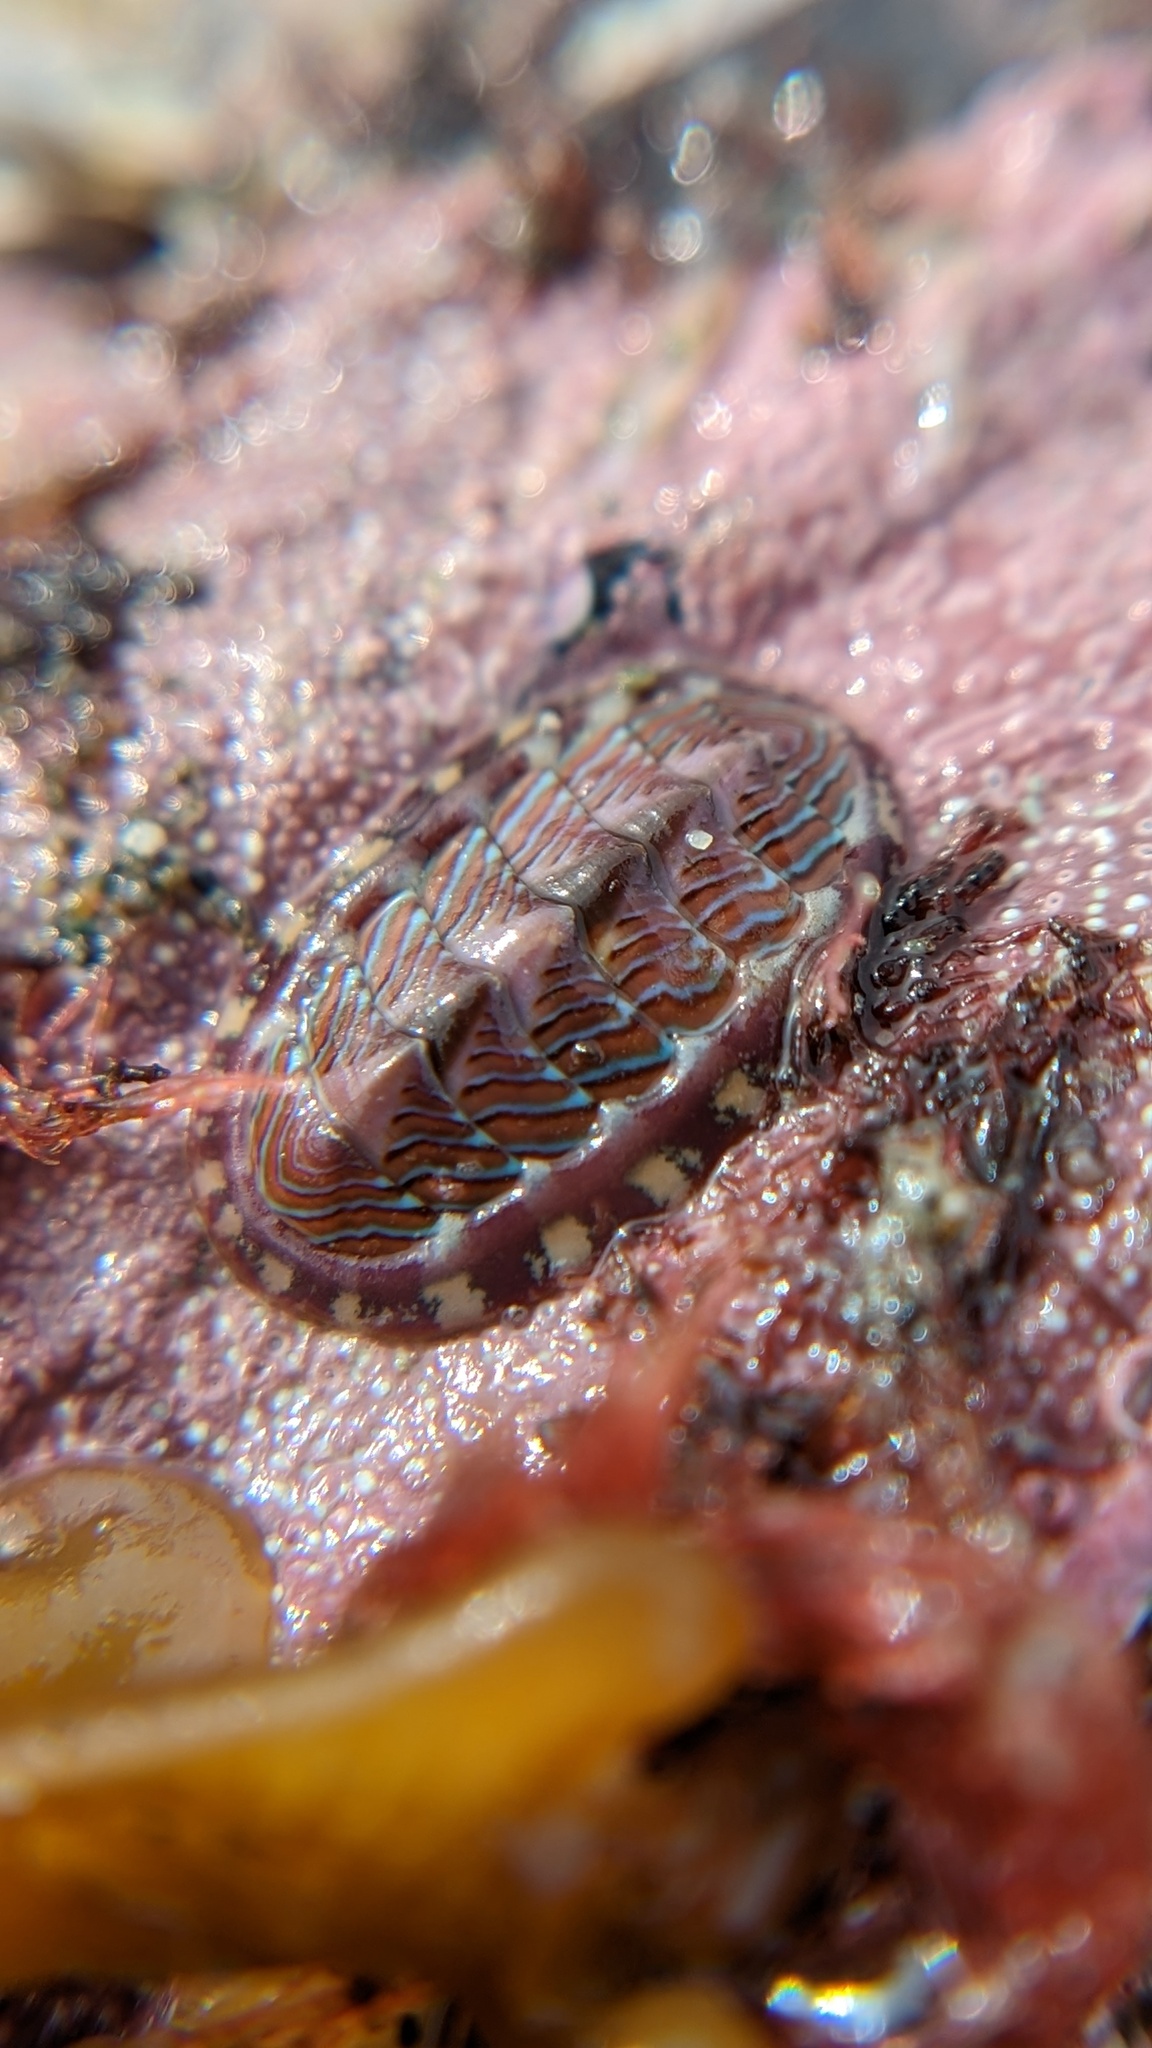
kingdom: Animalia
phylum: Mollusca
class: Polyplacophora
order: Chitonida
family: Tonicellidae
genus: Tonicella
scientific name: Tonicella lineata
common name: Lined chiton
